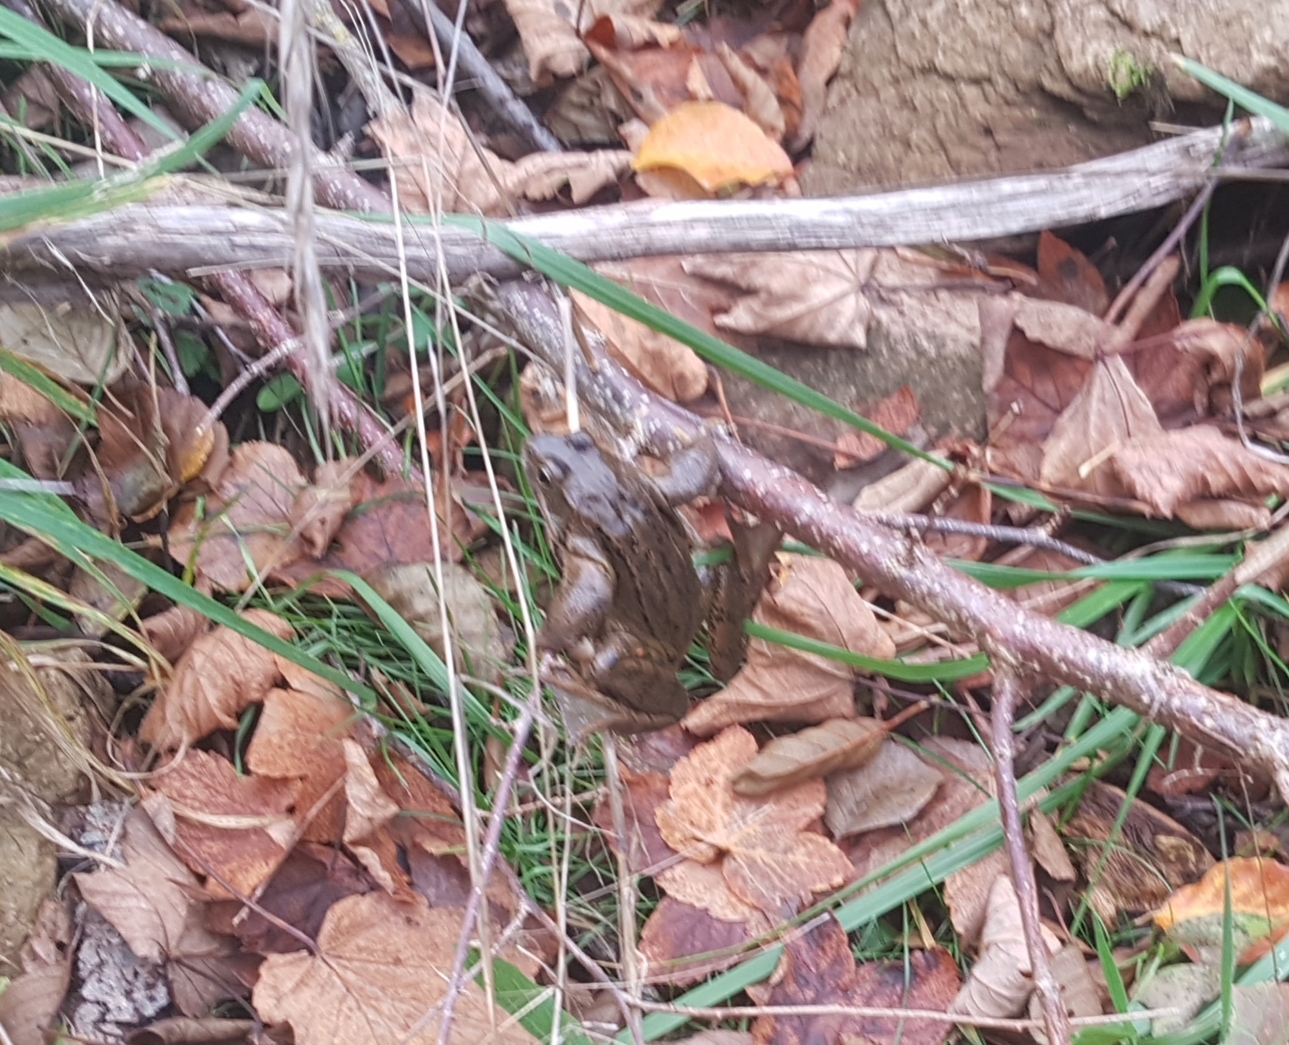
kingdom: Animalia
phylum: Chordata
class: Amphibia
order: Anura
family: Ranidae
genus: Rana
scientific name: Rana temporaria
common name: Common frog
